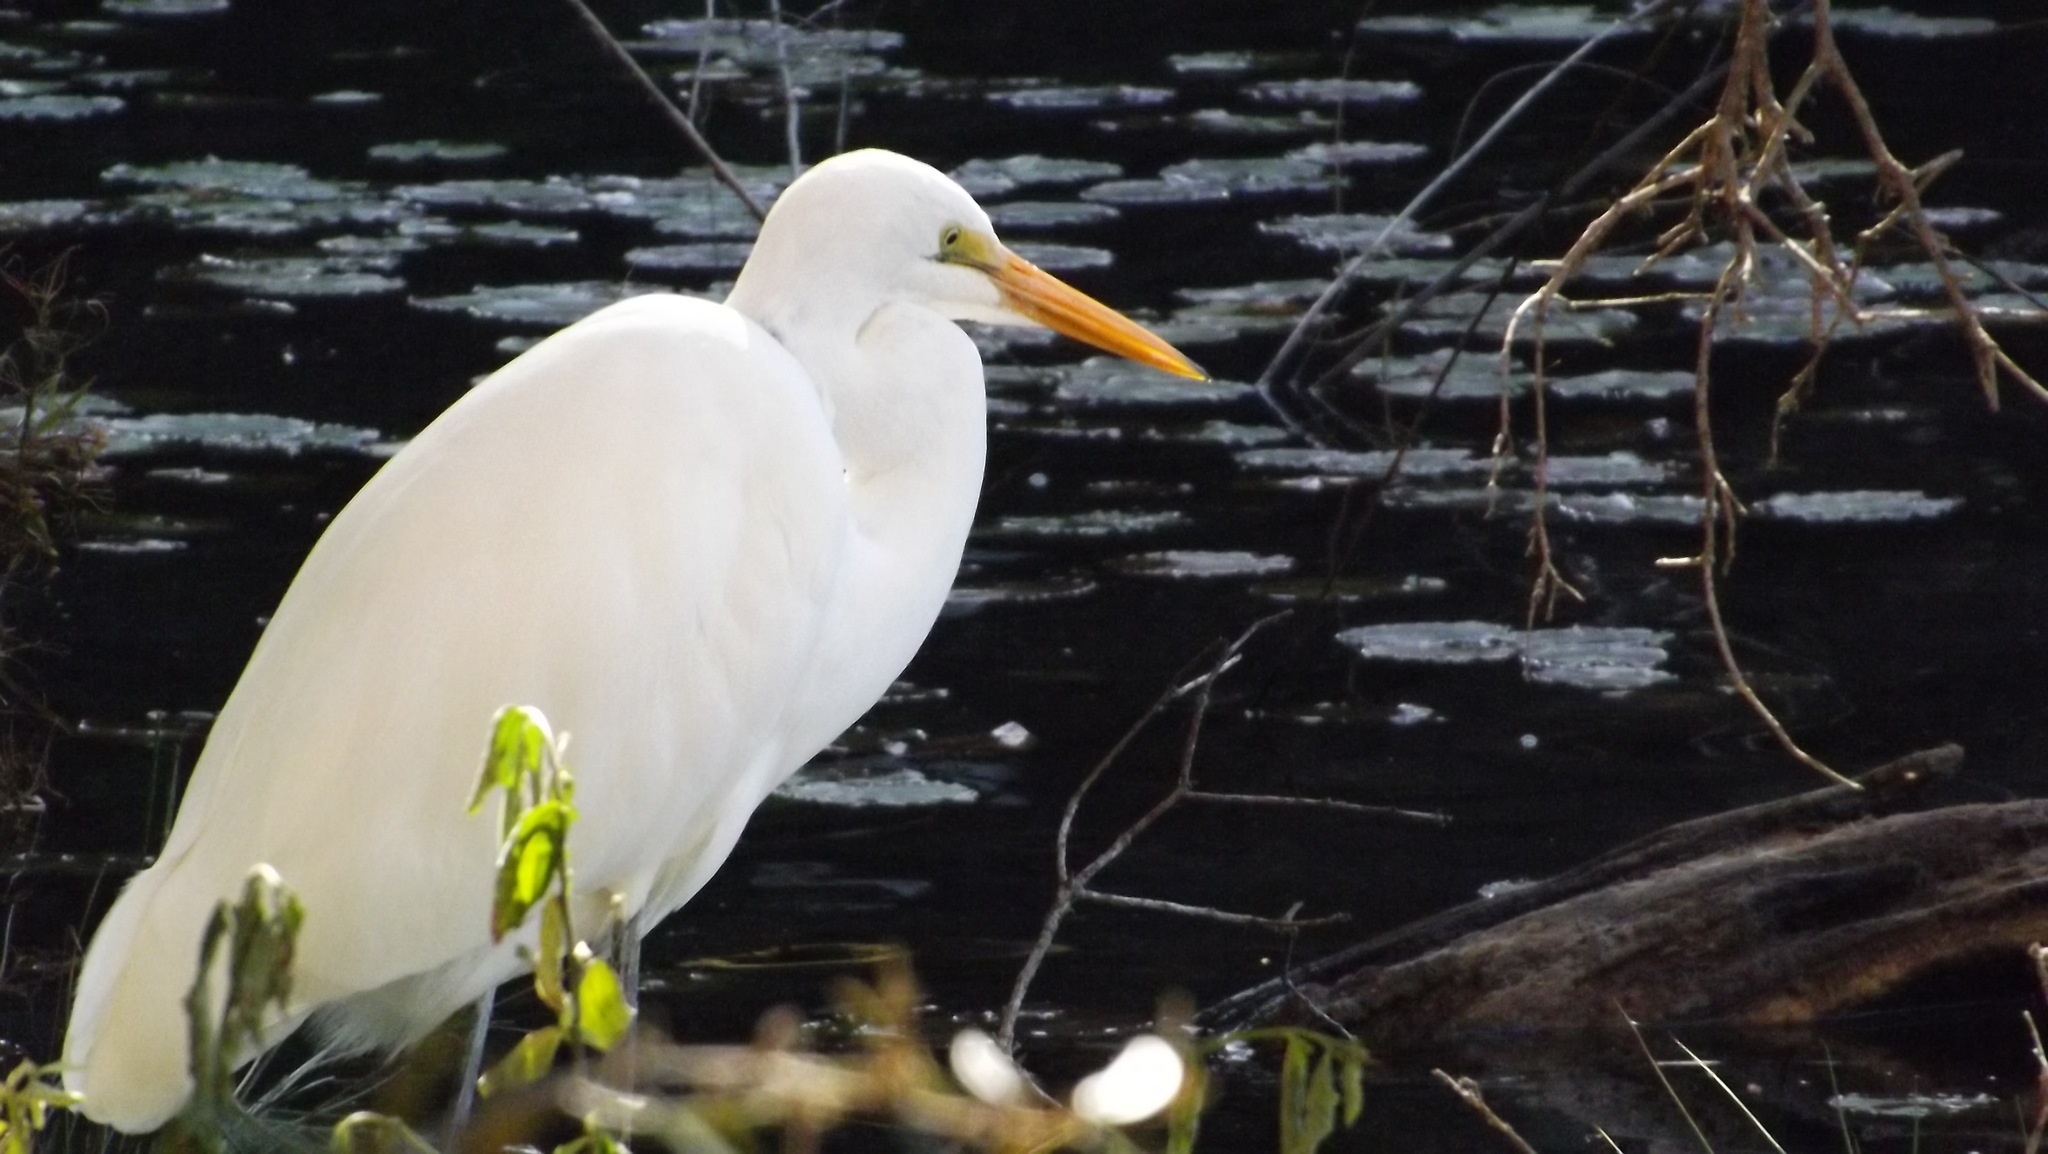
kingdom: Animalia
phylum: Chordata
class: Aves
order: Pelecaniformes
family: Ardeidae
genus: Ardea
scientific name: Ardea alba
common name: Great egret
